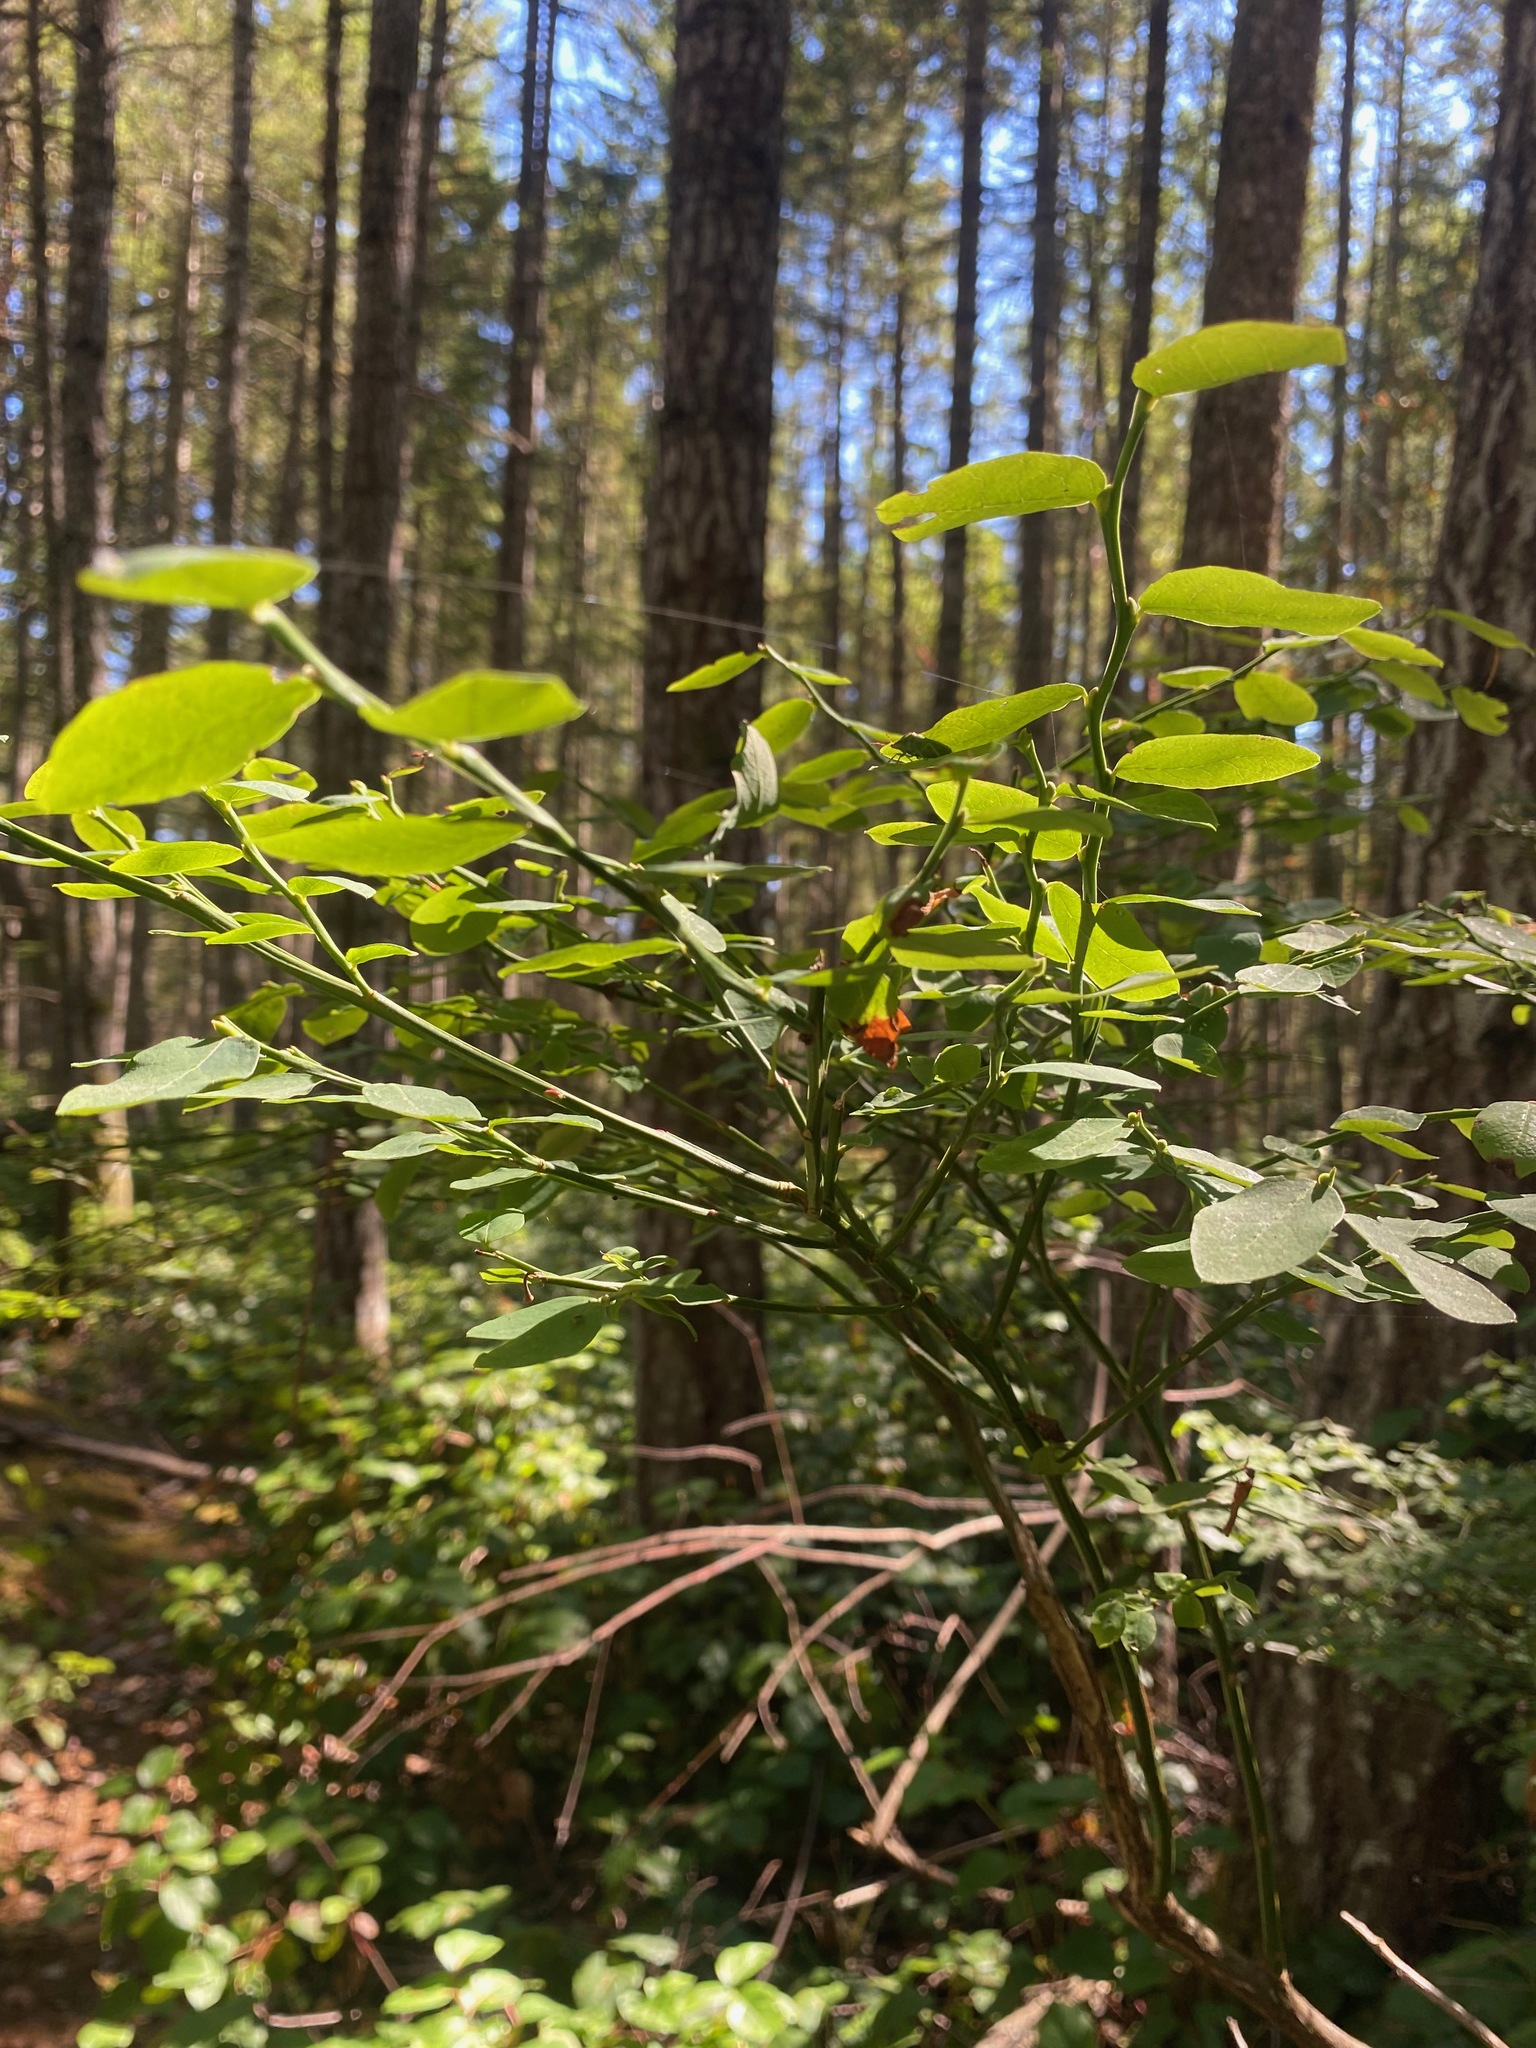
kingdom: Plantae
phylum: Tracheophyta
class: Magnoliopsida
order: Ericales
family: Ericaceae
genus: Vaccinium
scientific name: Vaccinium parvifolium
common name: Red-huckleberry
